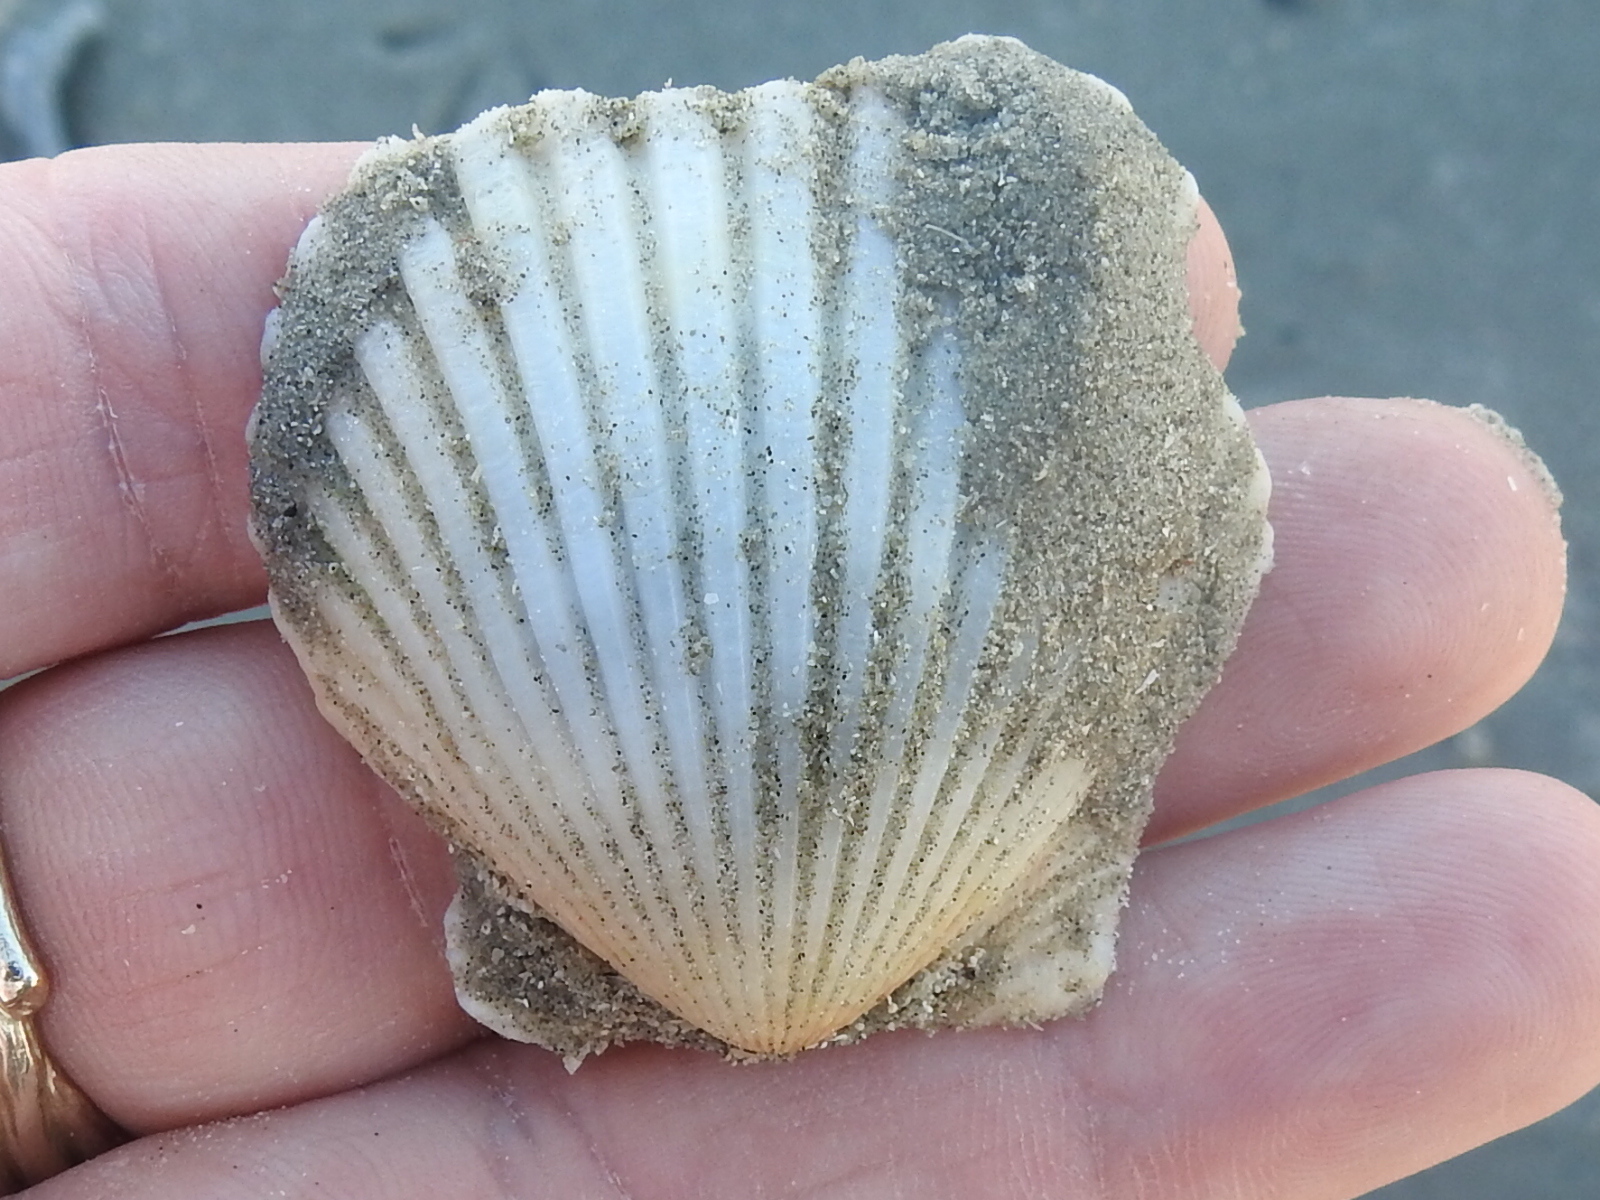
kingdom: Animalia
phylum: Mollusca
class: Bivalvia
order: Pectinida
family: Pectinidae
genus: Argopecten
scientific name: Argopecten irradians
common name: Atlantic bay scallop
